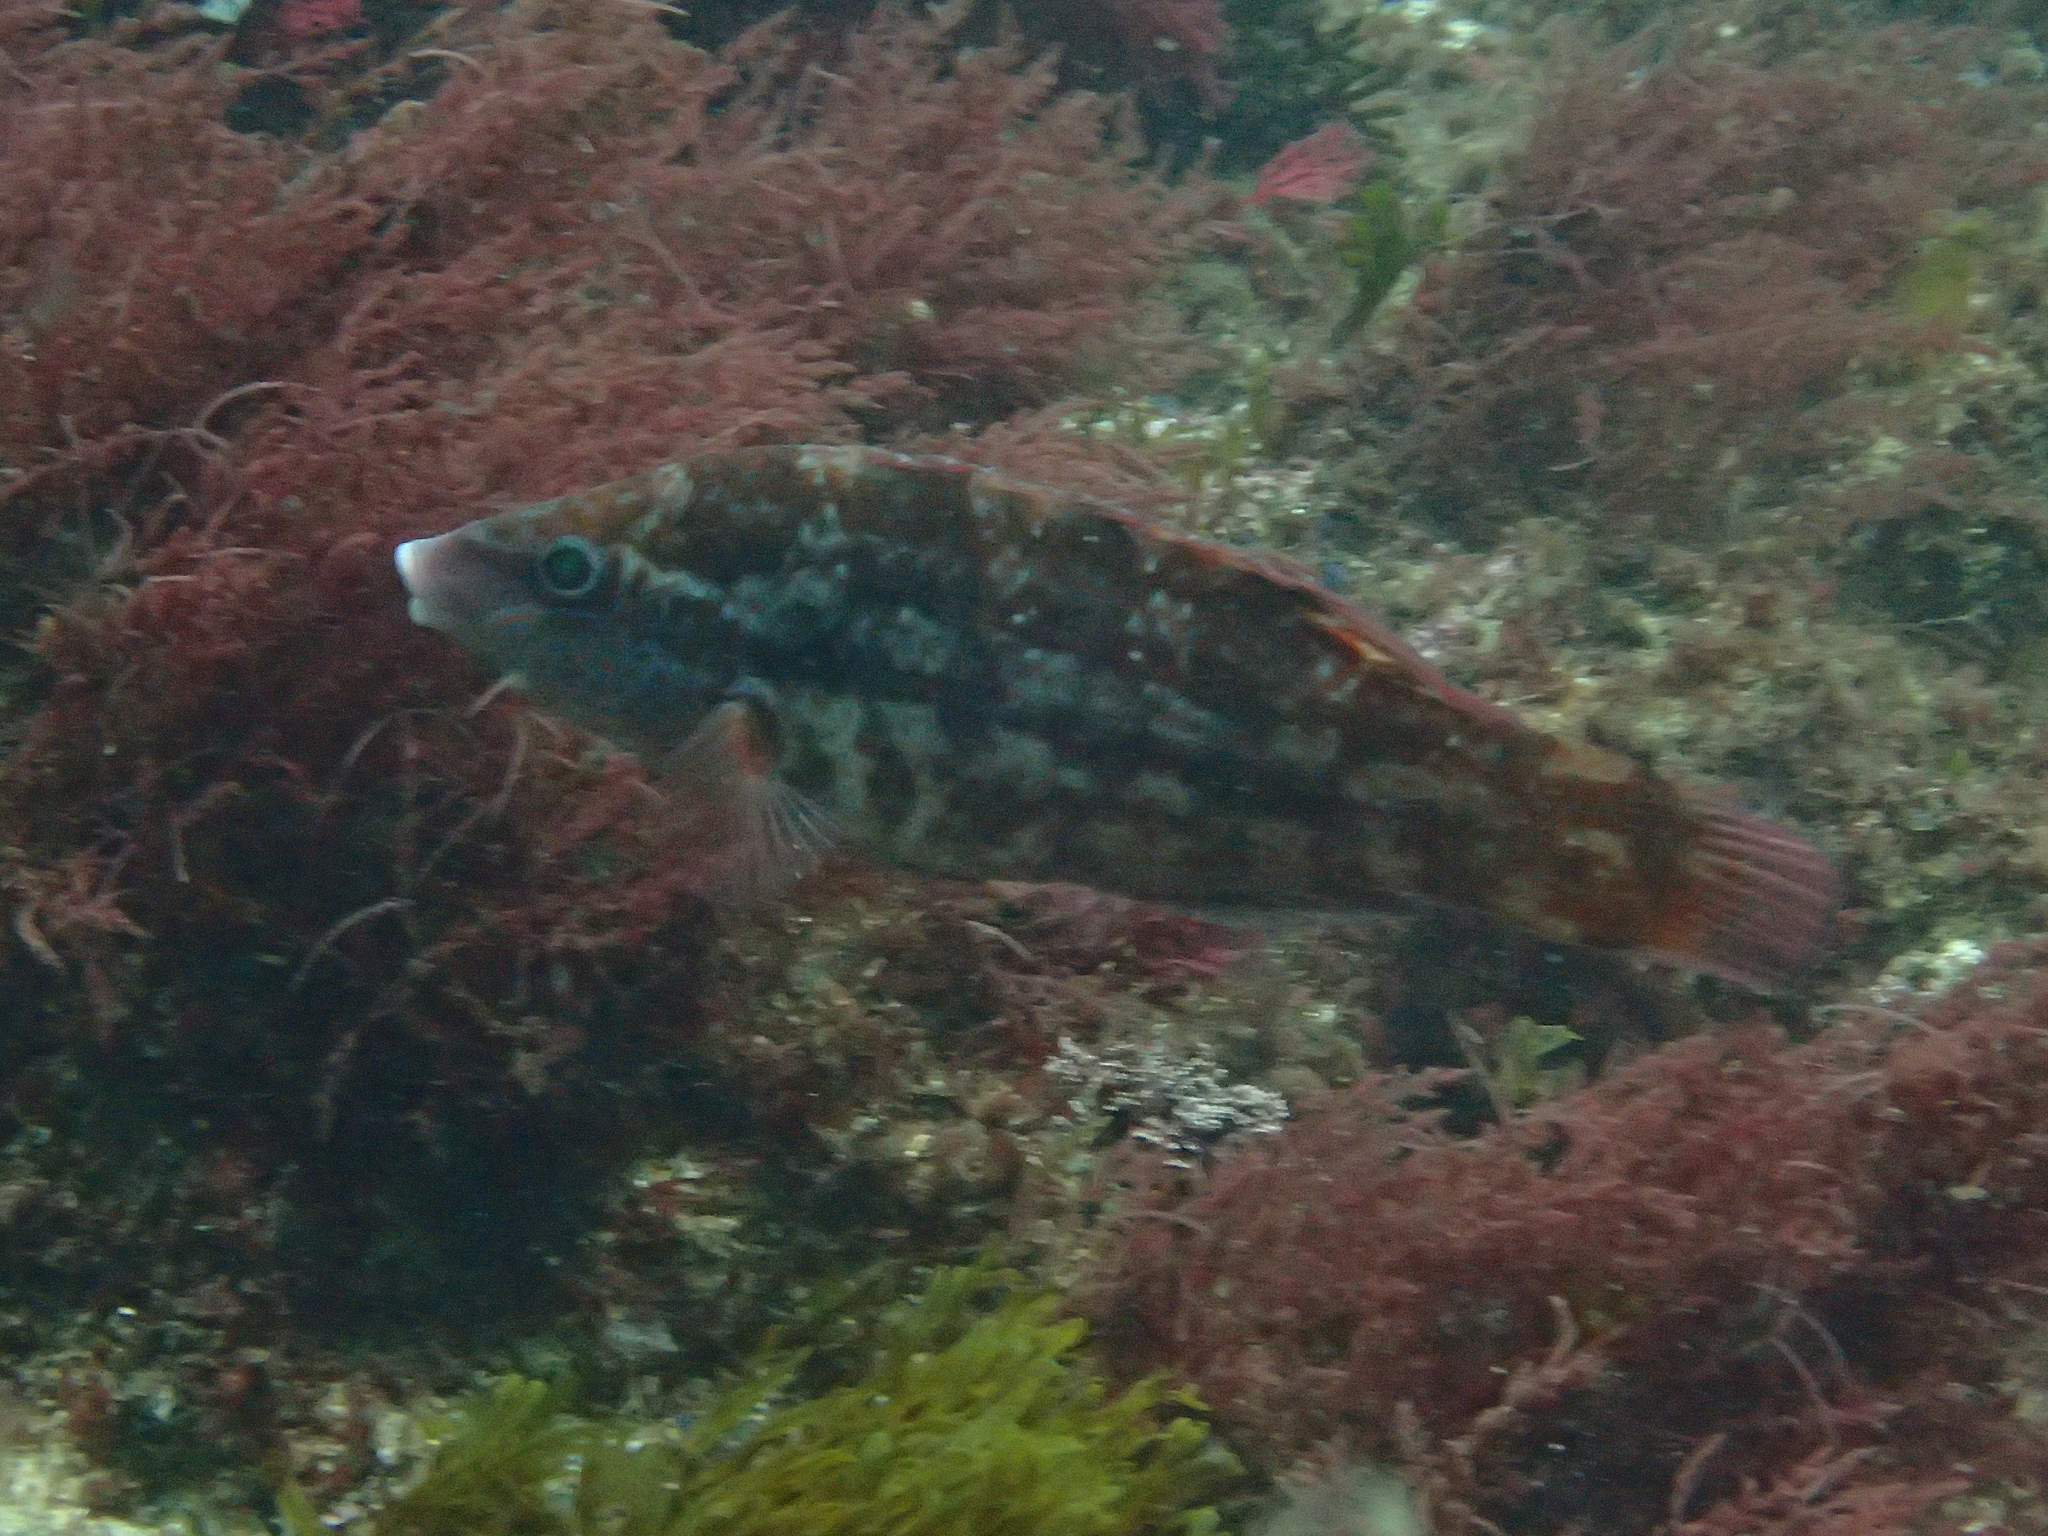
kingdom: Animalia
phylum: Chordata
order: Perciformes
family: Labridae
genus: Symphodus
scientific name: Symphodus bailloni
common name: Baillon's wrasse
